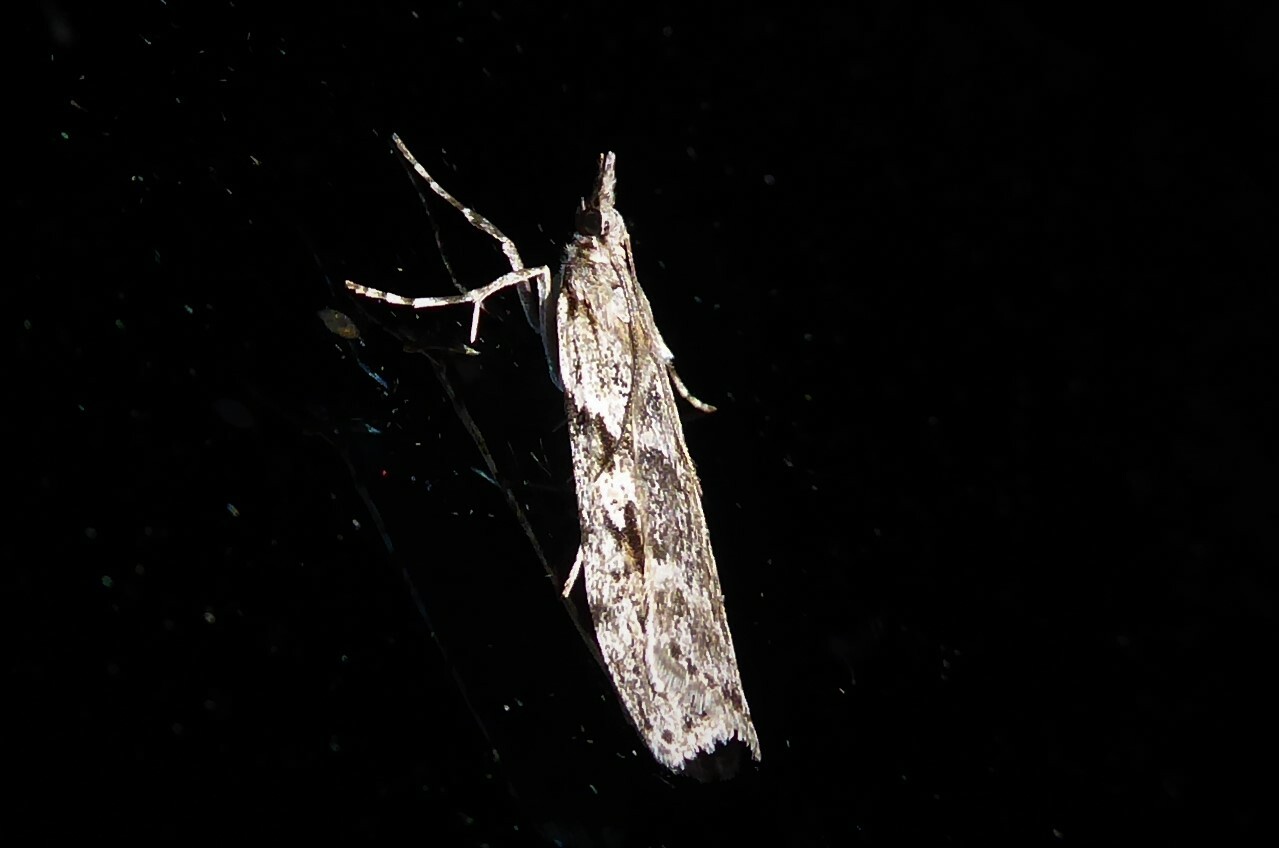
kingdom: Animalia
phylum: Arthropoda
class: Insecta
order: Lepidoptera
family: Crambidae
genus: Scoparia
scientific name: Scoparia halopis
